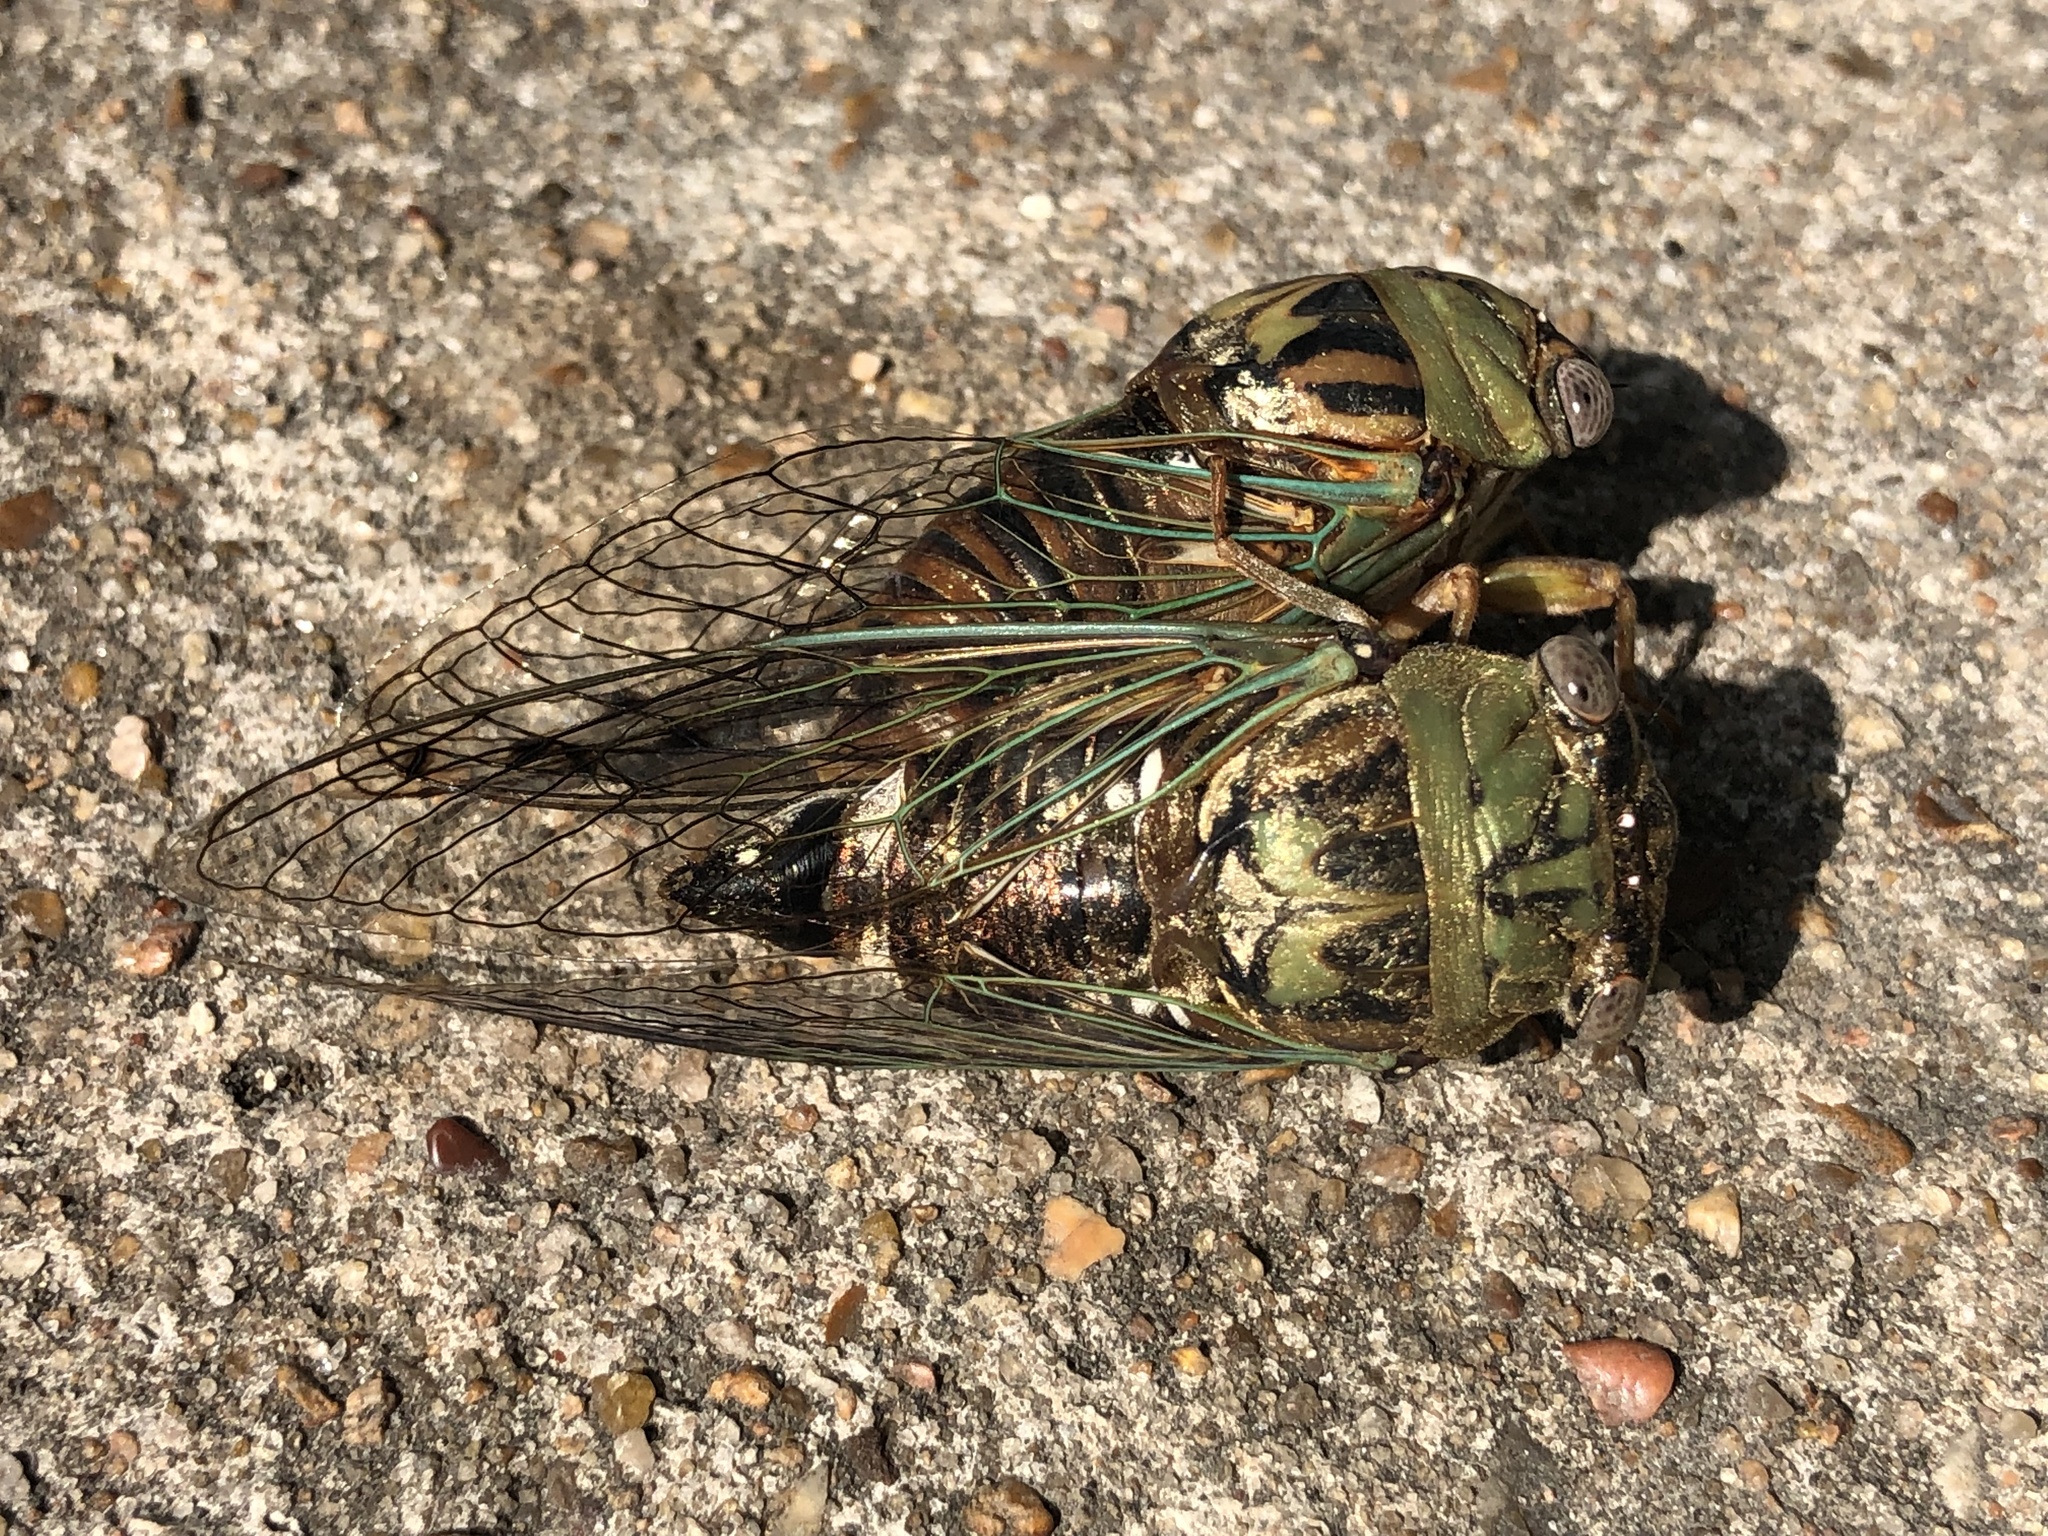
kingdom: Animalia
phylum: Arthropoda
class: Insecta
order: Hemiptera
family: Cicadidae
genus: Megatibicen
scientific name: Megatibicen resh
